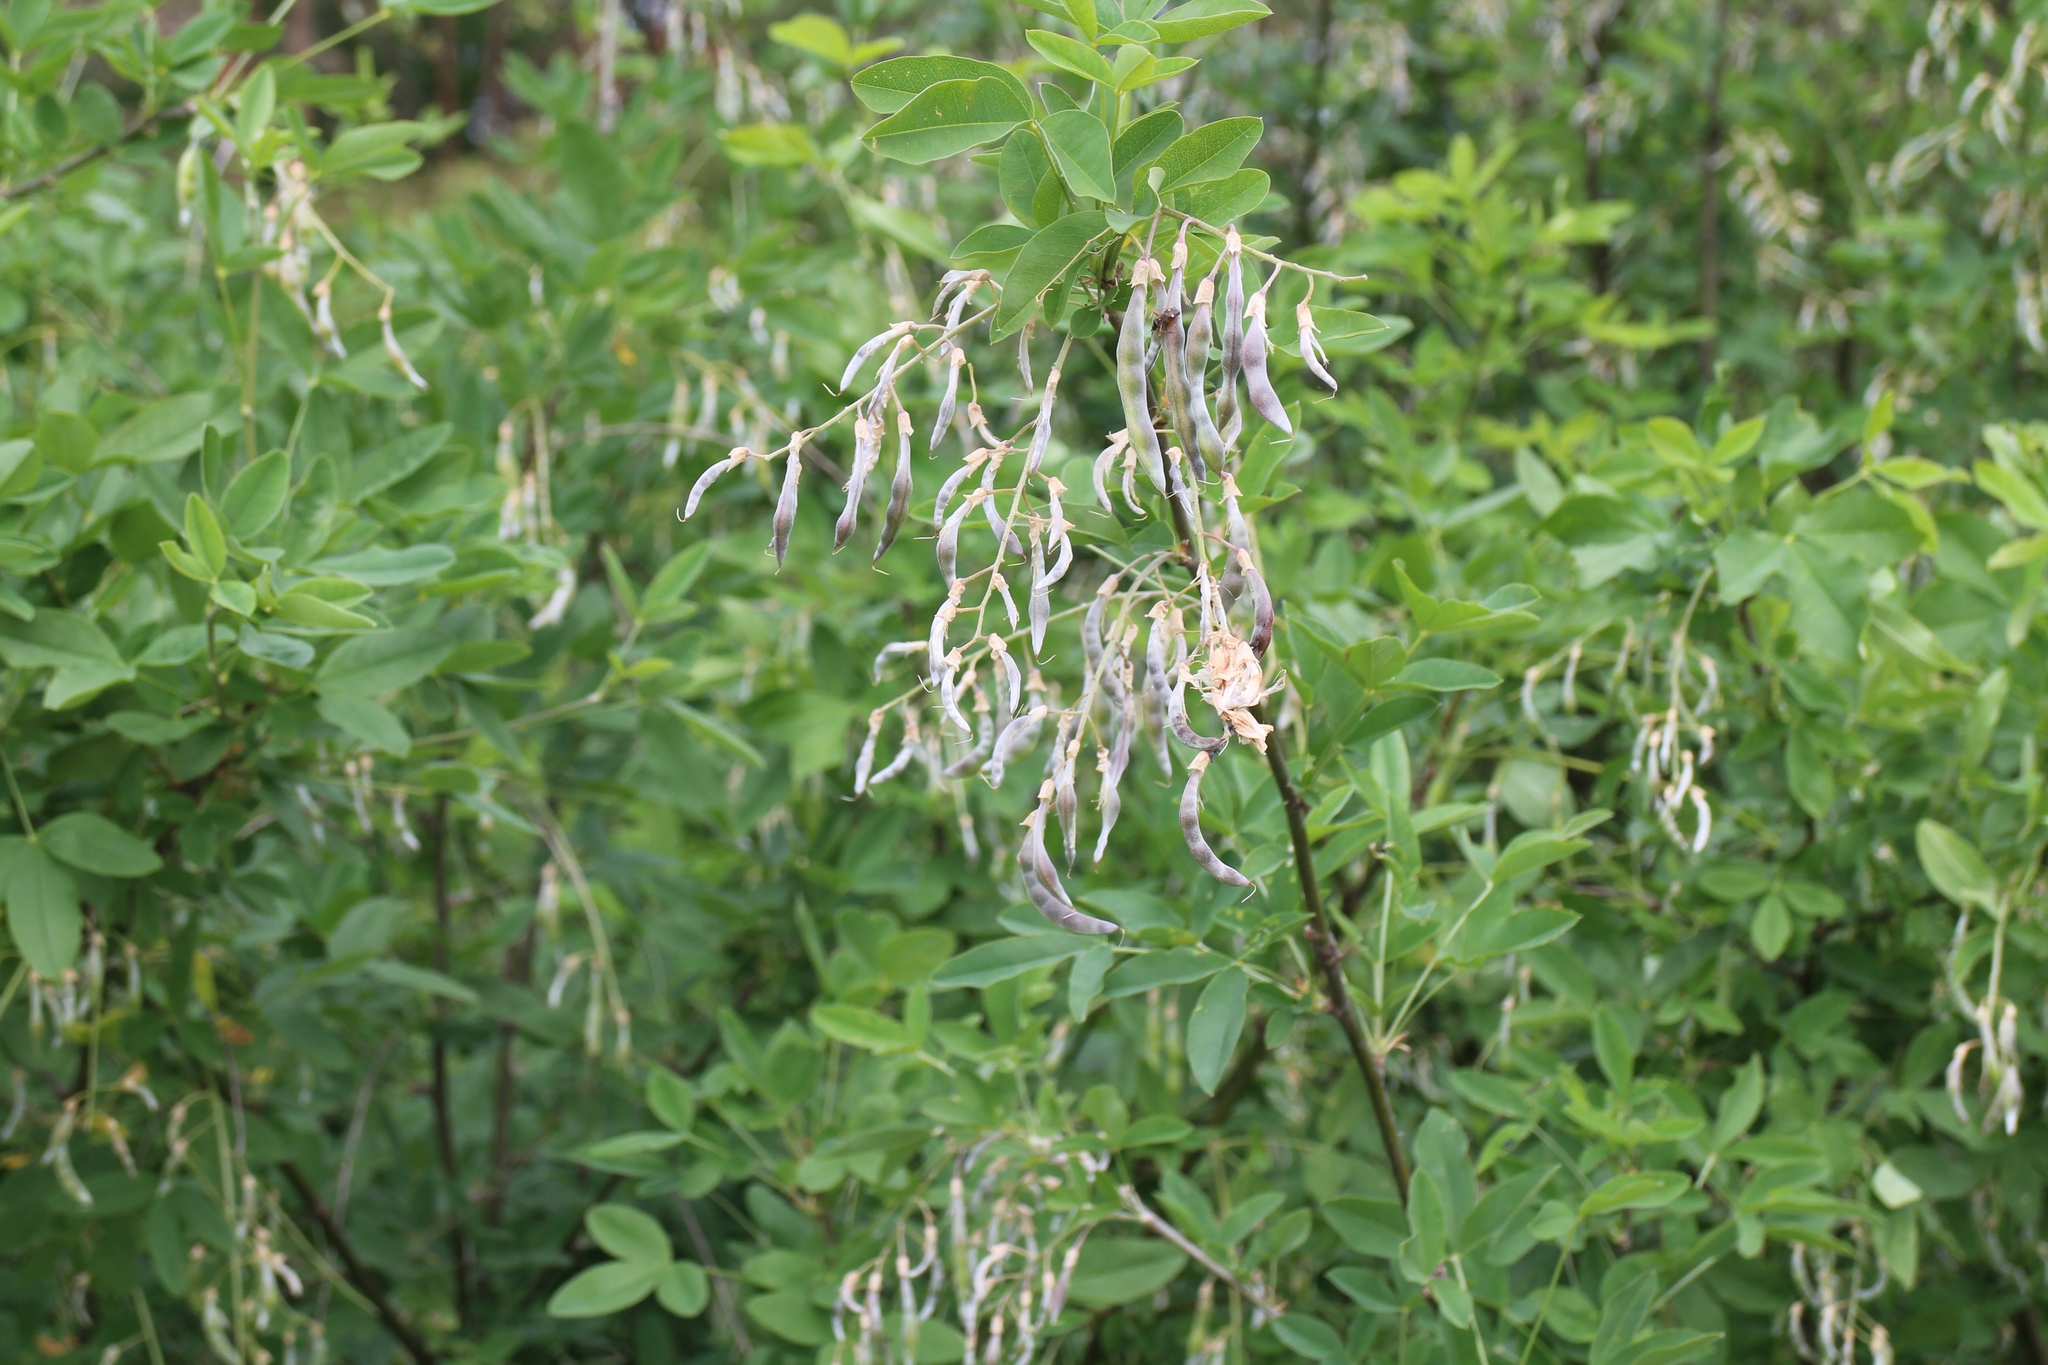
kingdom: Plantae
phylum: Tracheophyta
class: Magnoliopsida
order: Fabales
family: Fabaceae
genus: Laburnum
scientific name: Laburnum anagyroides
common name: Laburnum
